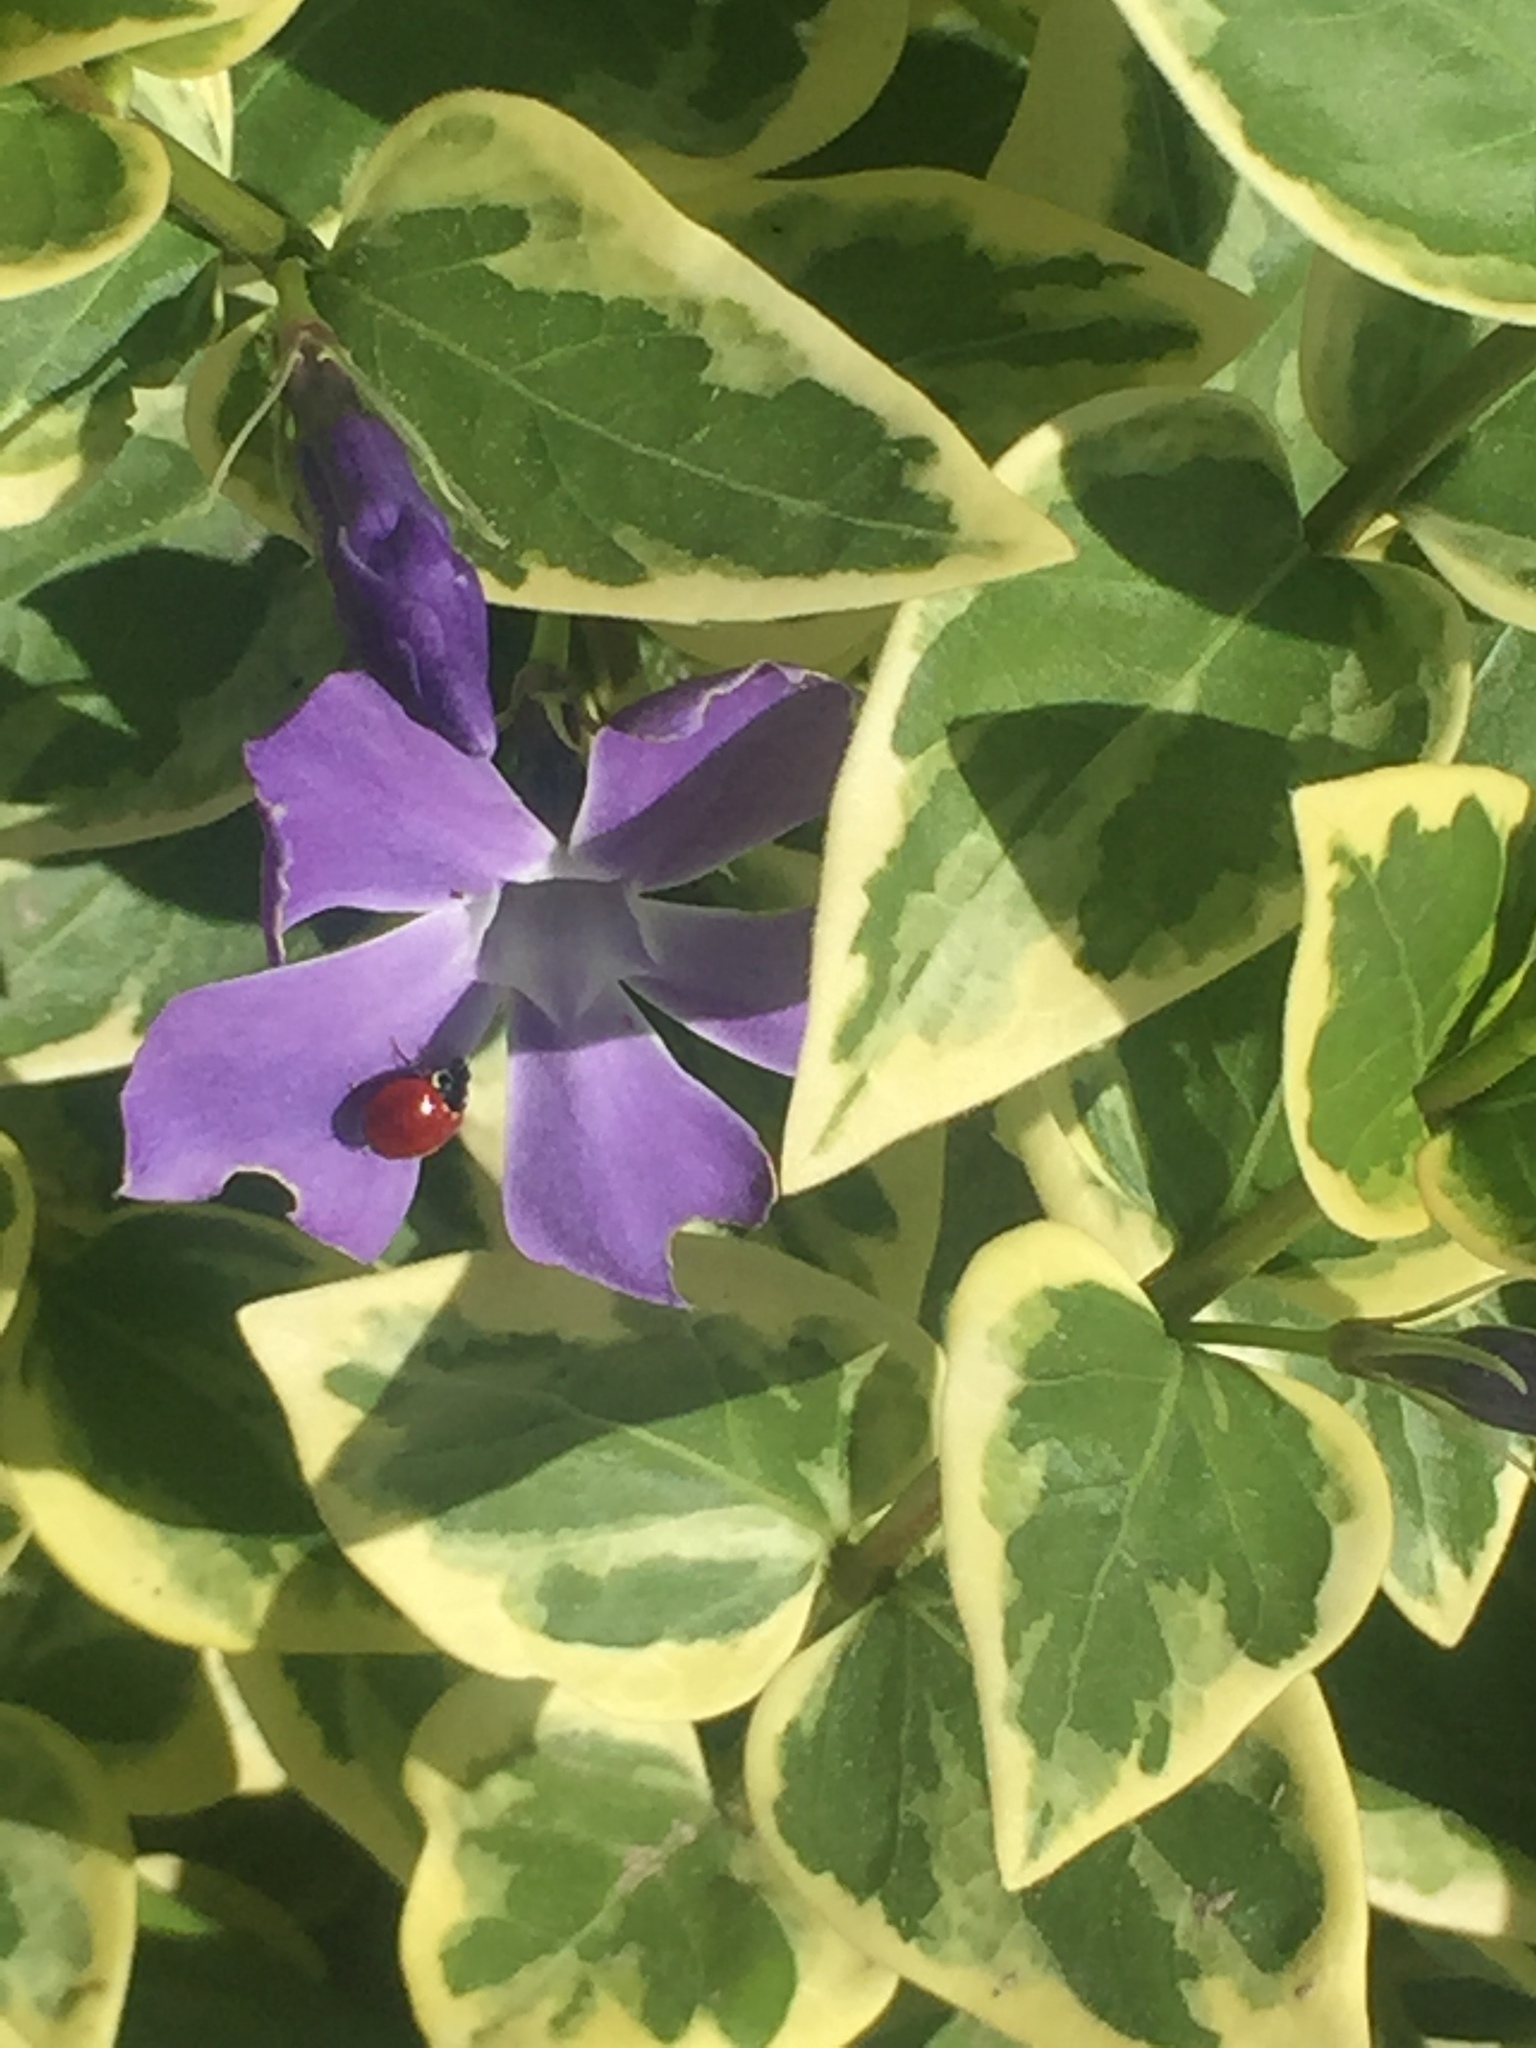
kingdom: Plantae
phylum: Tracheophyta
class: Magnoliopsida
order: Gentianales
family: Apocynaceae
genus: Vinca
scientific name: Vinca major
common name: Greater periwinkle
